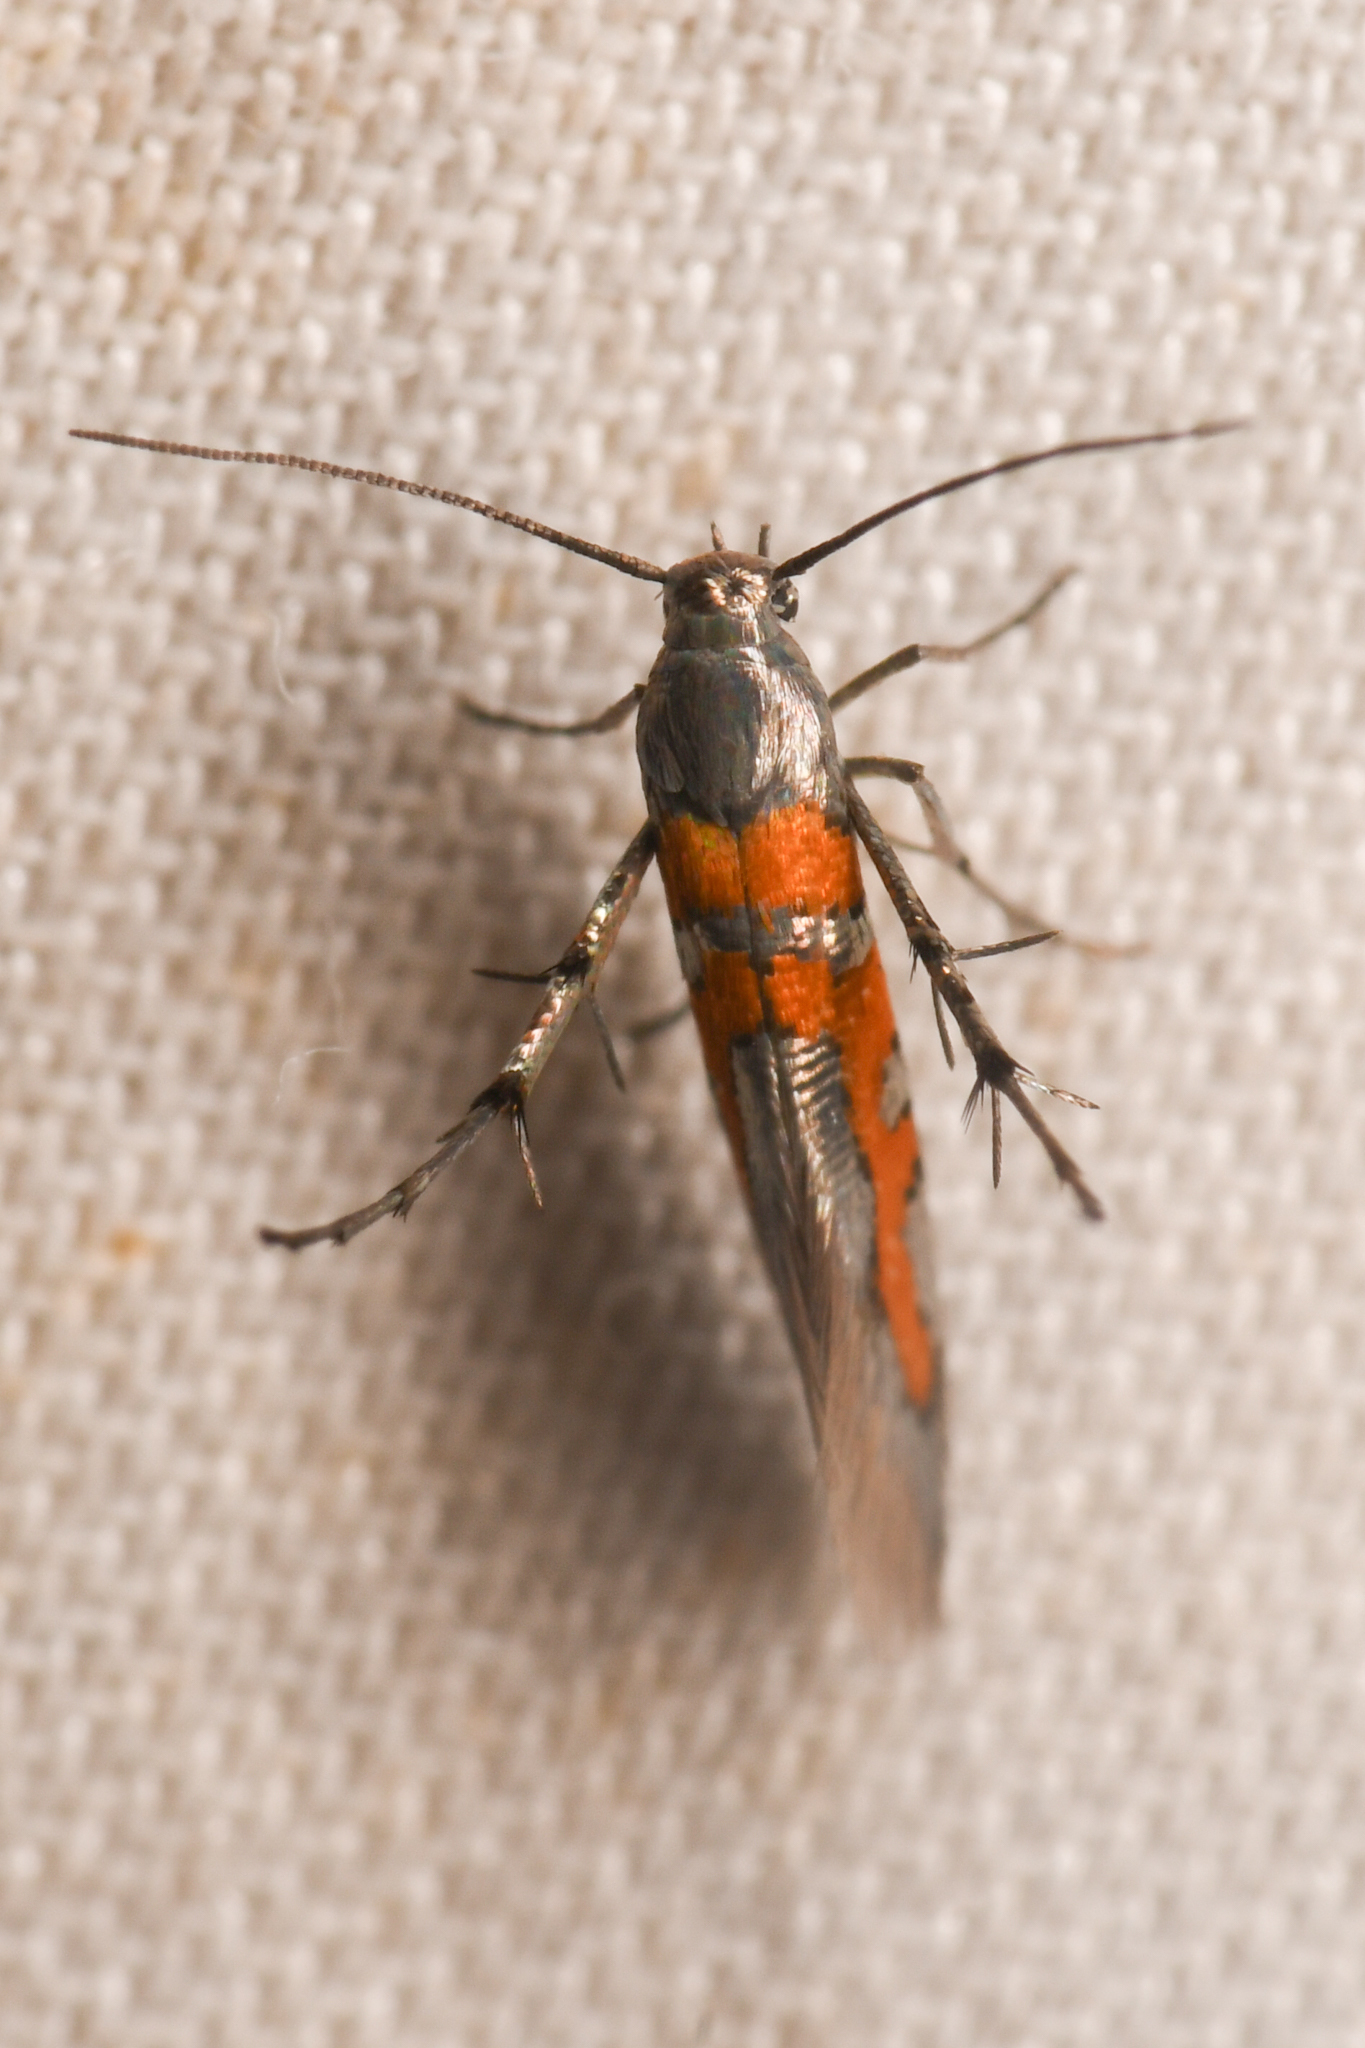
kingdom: Animalia
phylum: Arthropoda
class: Insecta
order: Lepidoptera
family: Heliodinidae
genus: Heliodines
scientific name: Heliodines
